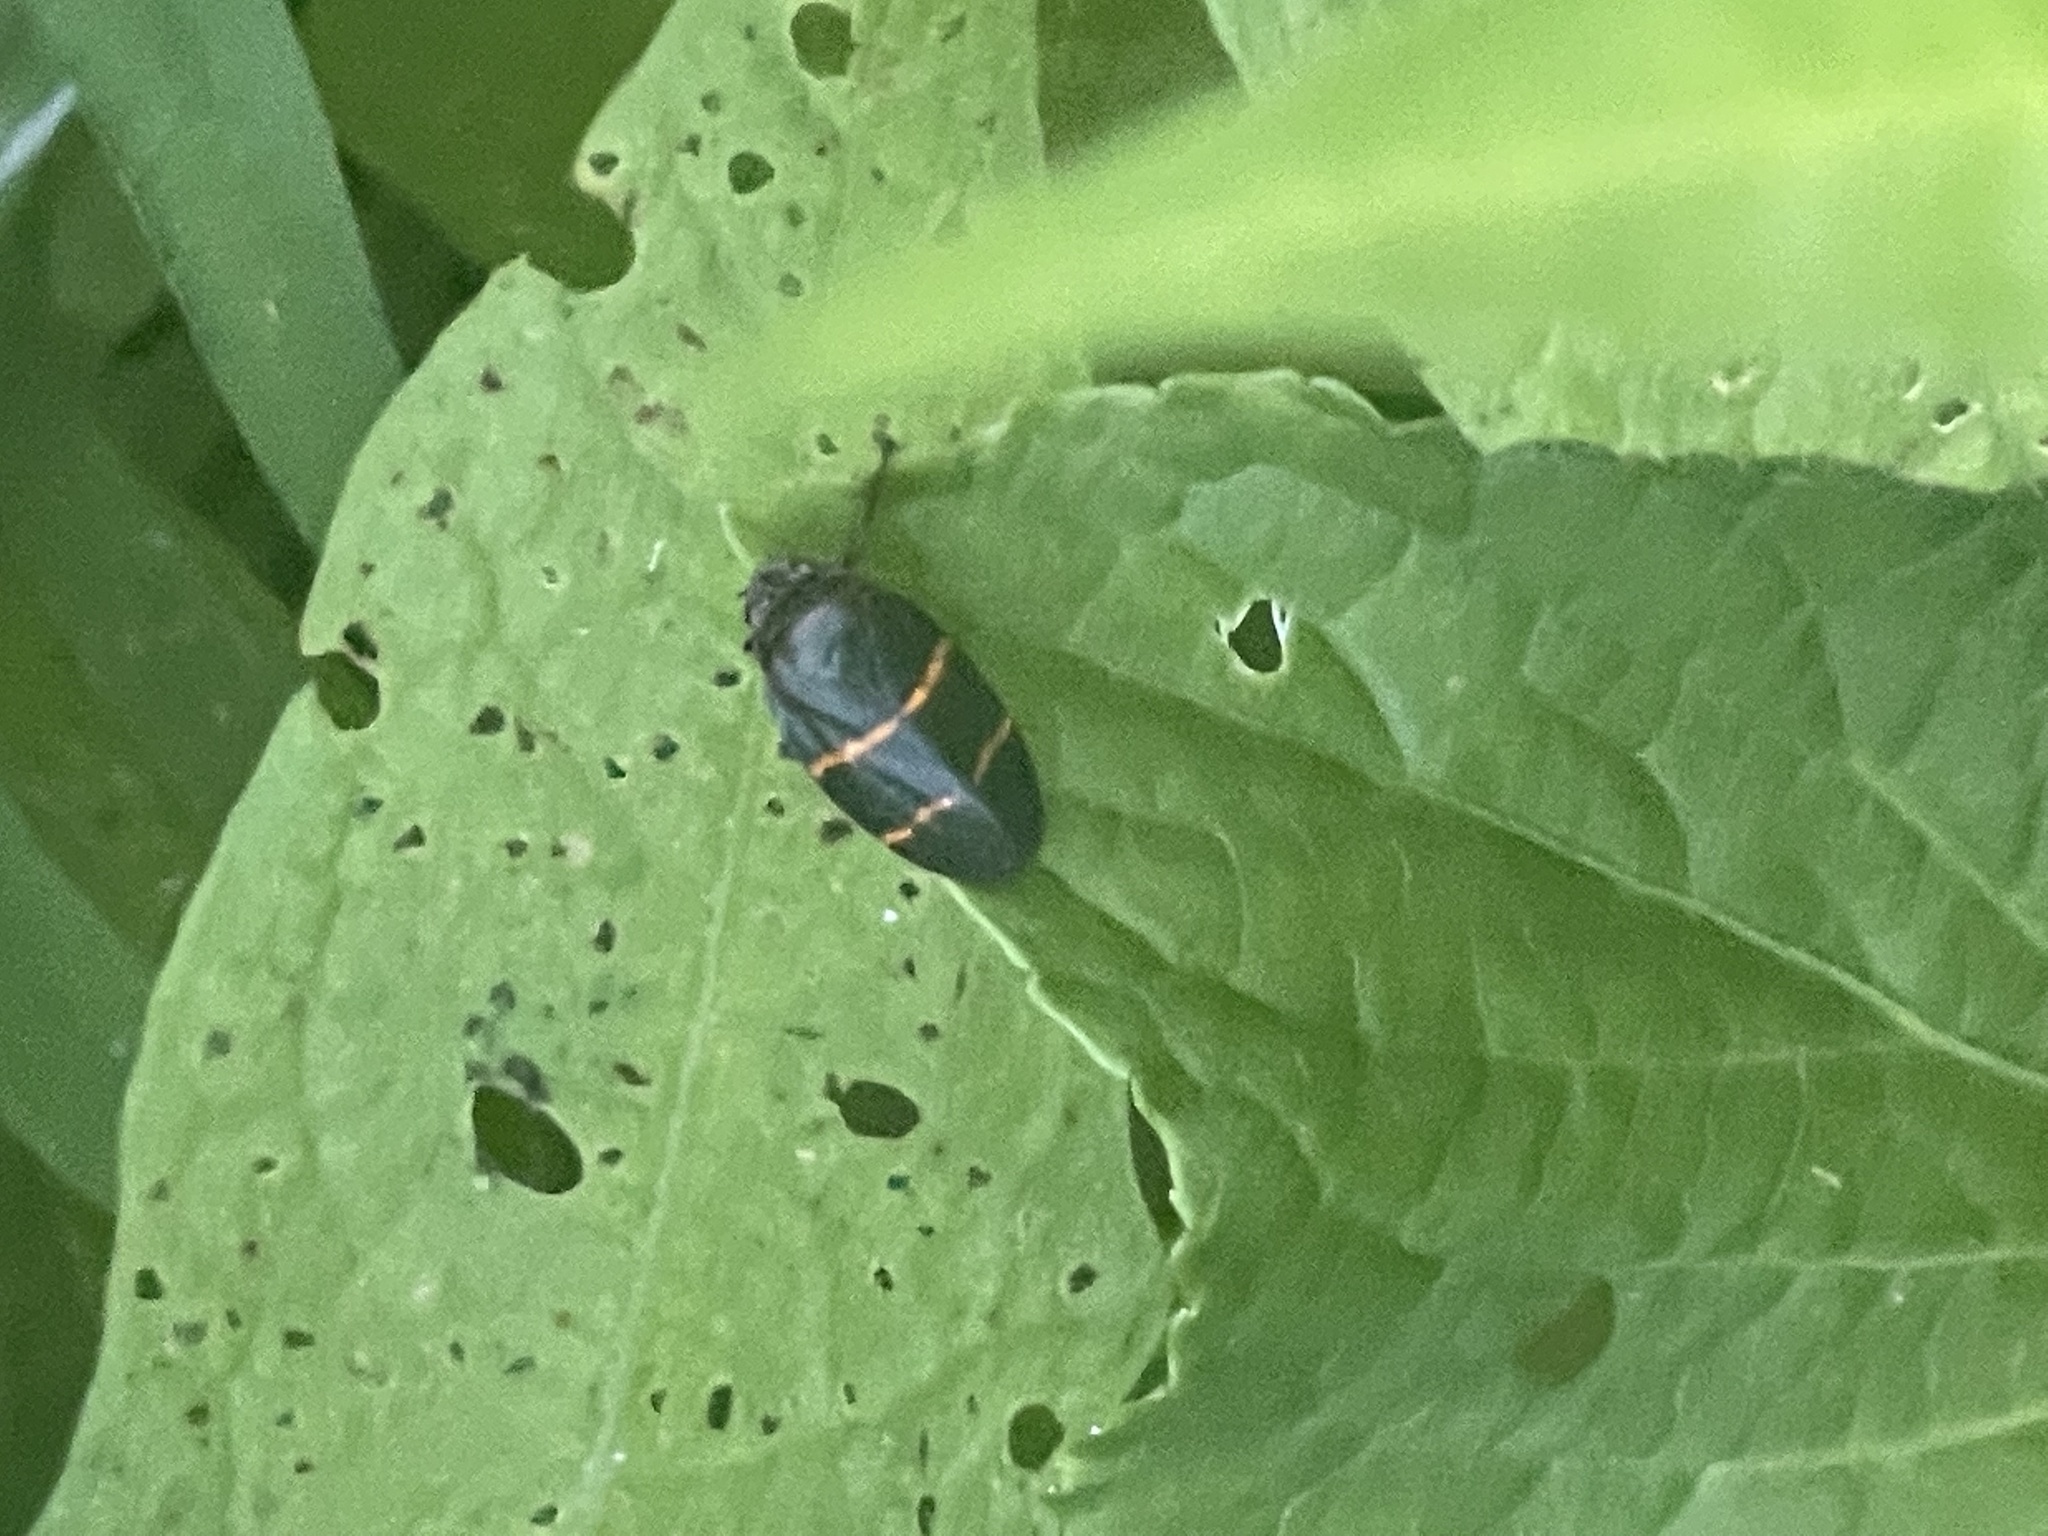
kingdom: Animalia
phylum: Arthropoda
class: Insecta
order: Hemiptera
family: Cercopidae
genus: Prosapia
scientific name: Prosapia bicincta
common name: Twolined spittlebug
